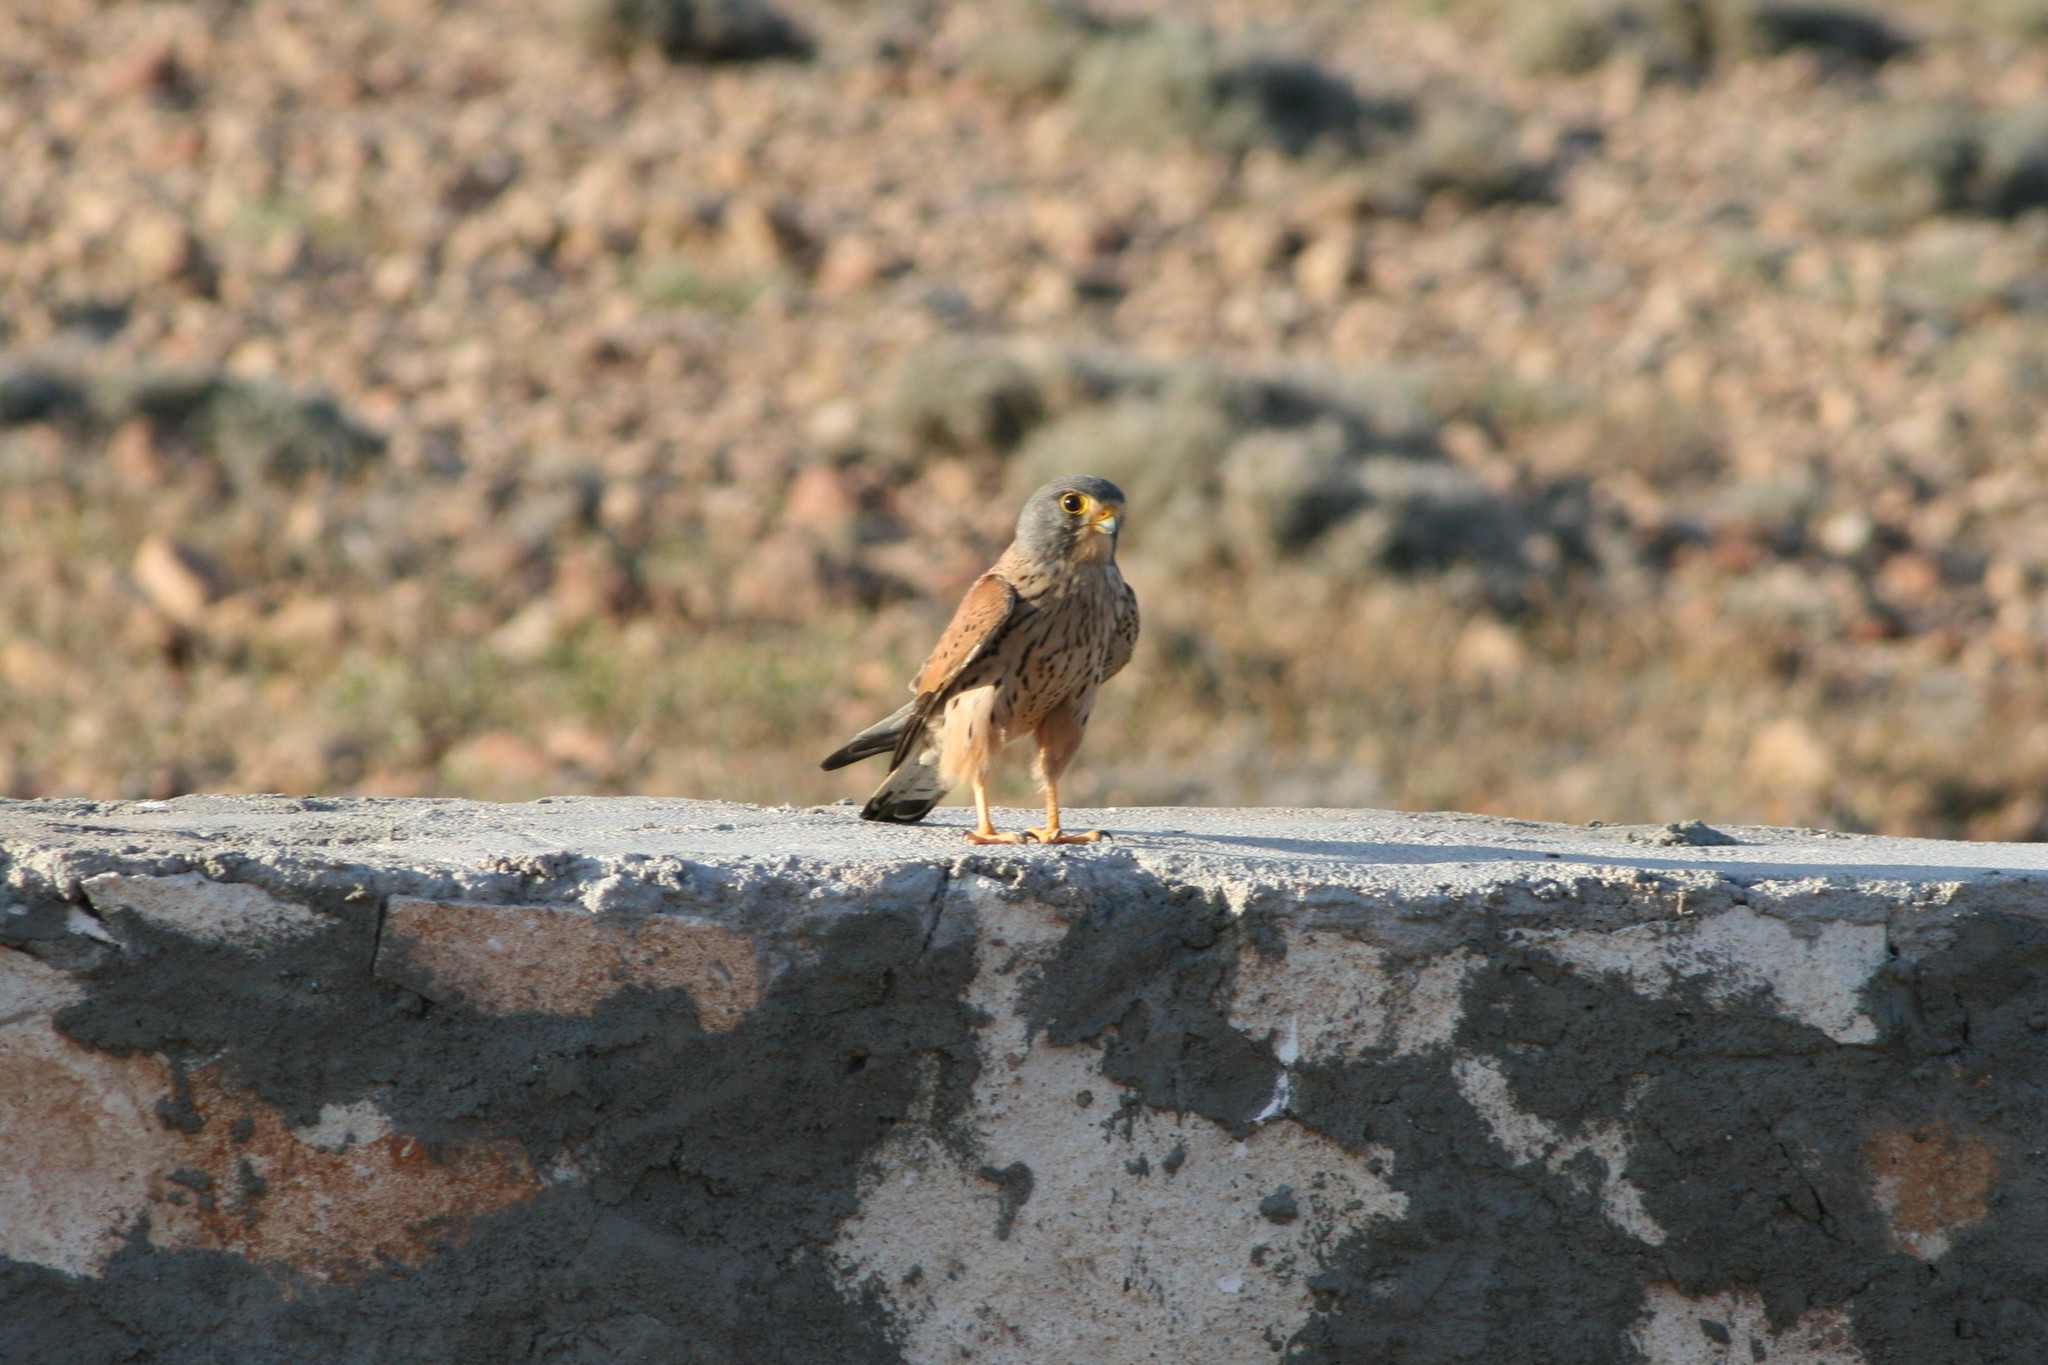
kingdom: Animalia
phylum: Chordata
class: Aves
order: Falconiformes
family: Falconidae
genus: Falco
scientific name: Falco tinnunculus
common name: Common kestrel
